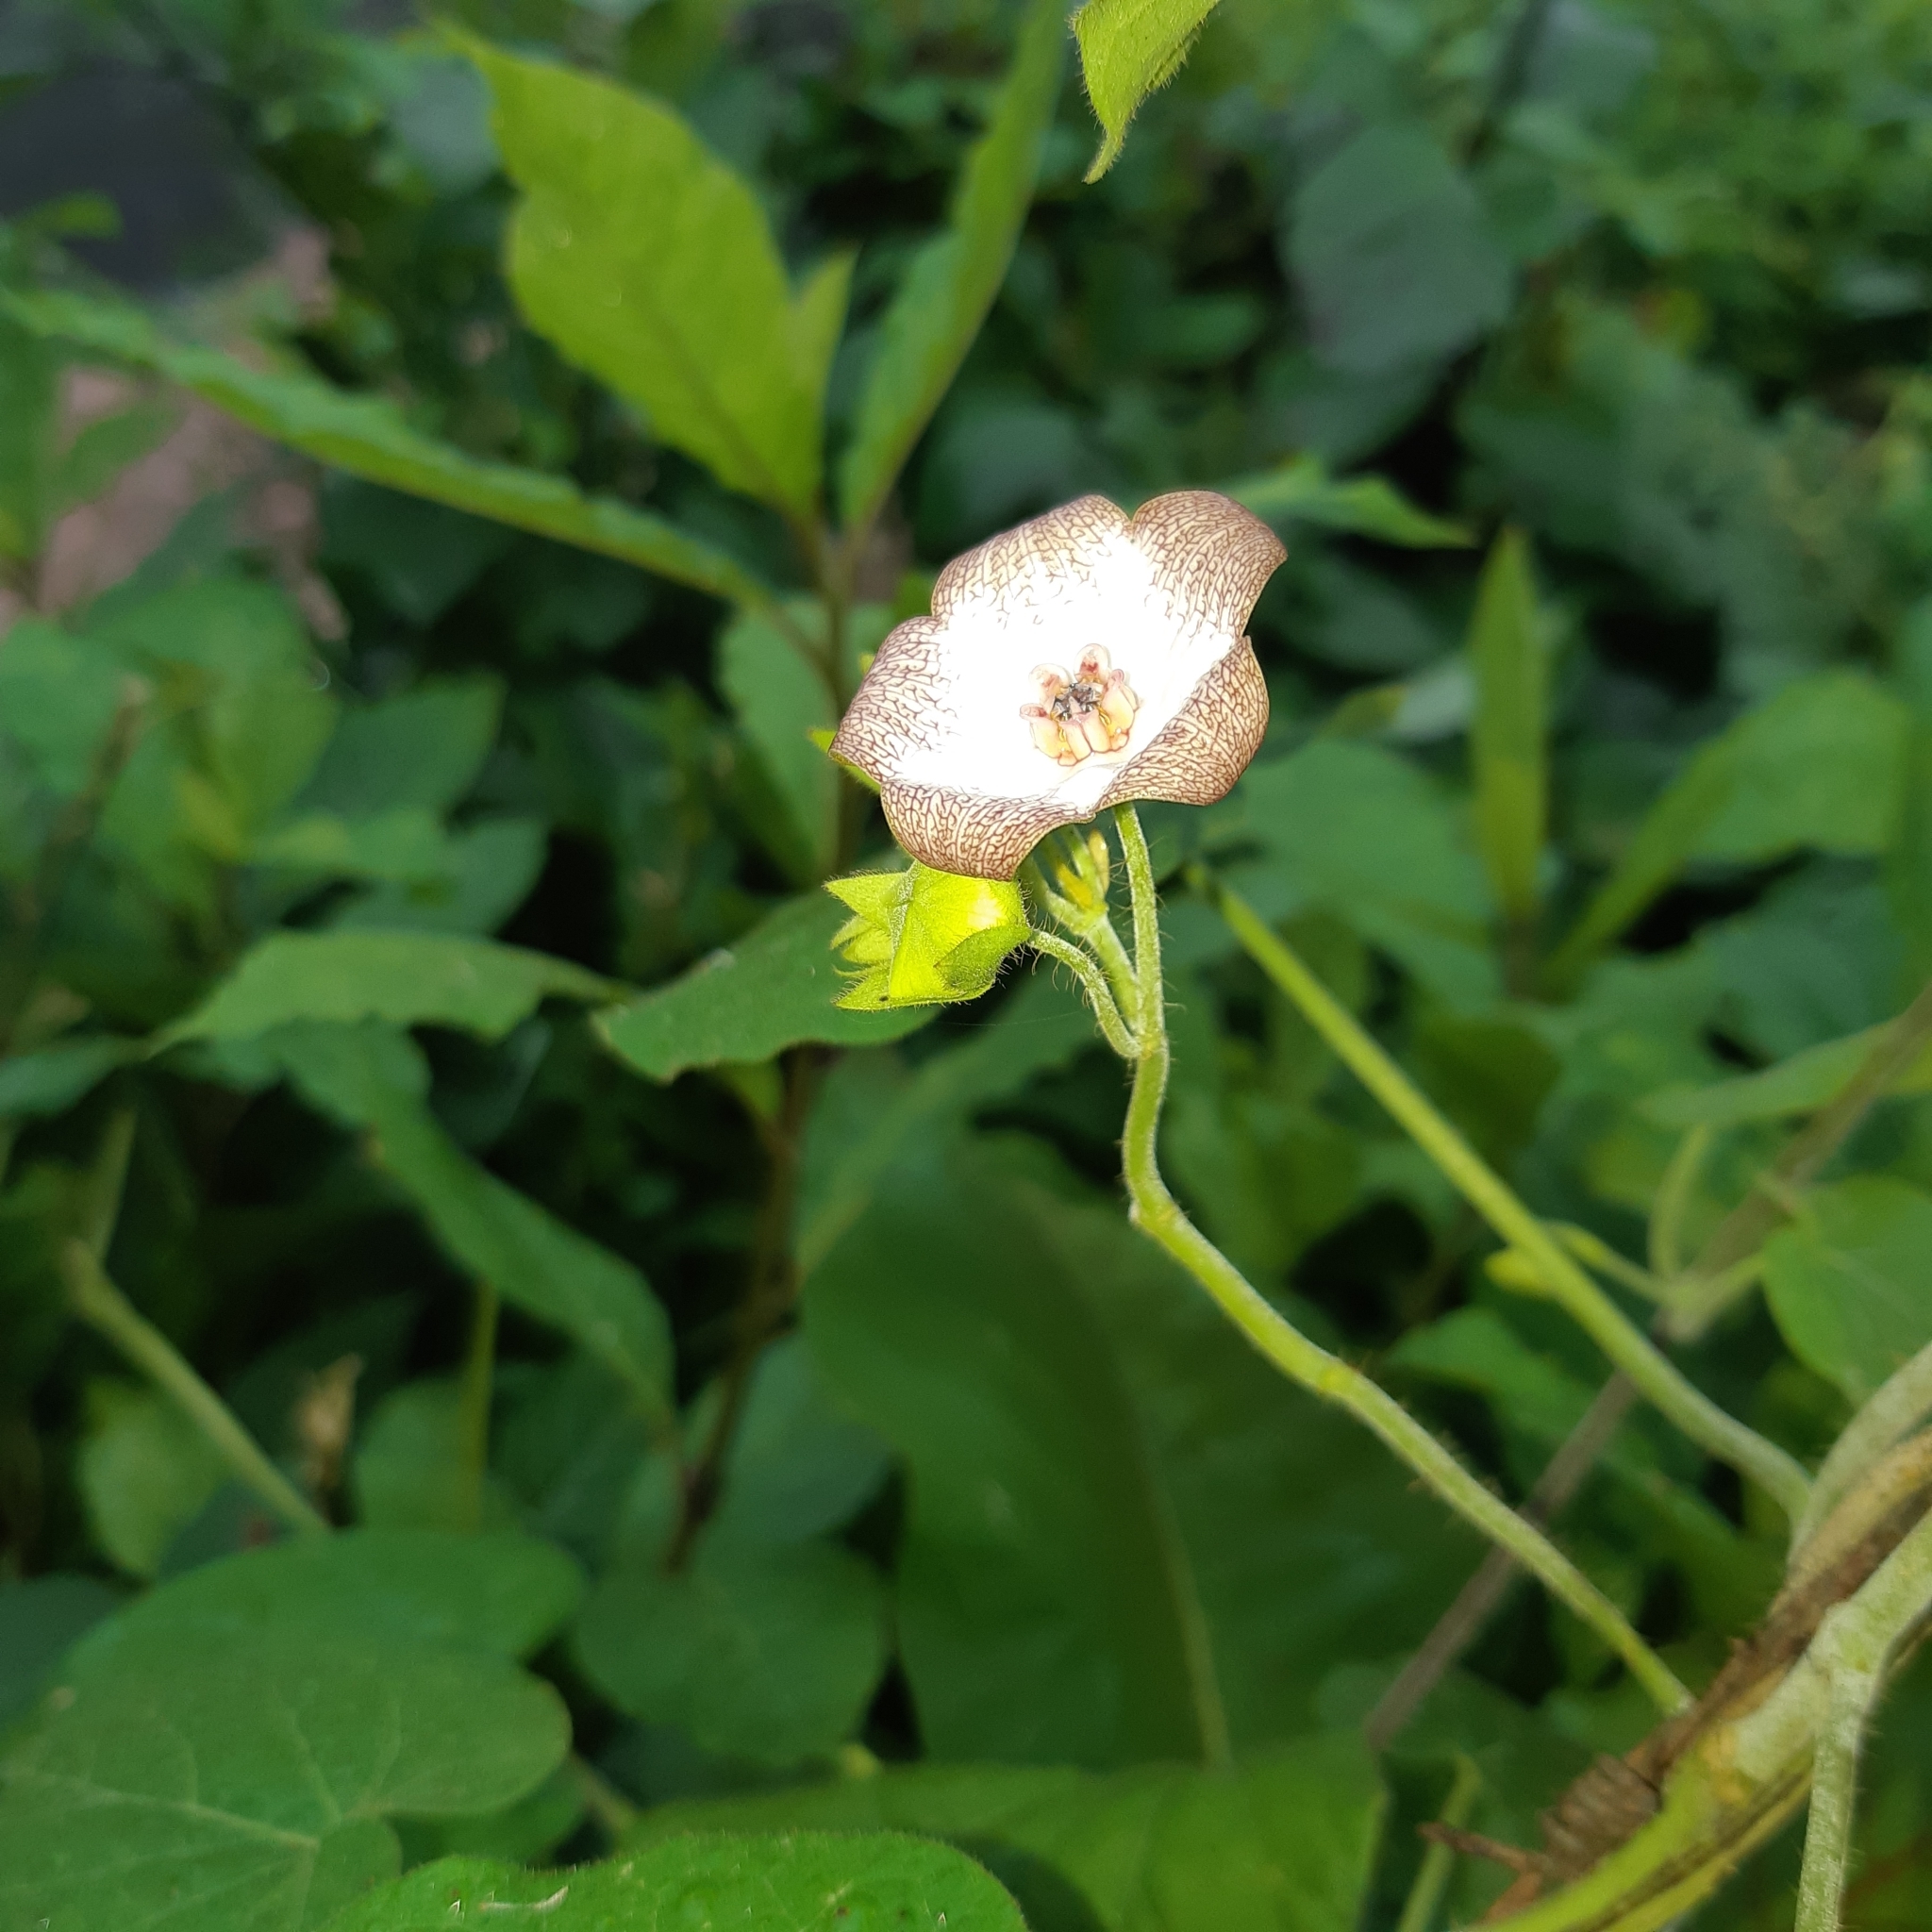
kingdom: Plantae
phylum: Tracheophyta
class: Magnoliopsida
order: Gentianales
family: Apocynaceae
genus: Polystemma
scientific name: Polystemma guatemalense
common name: Arborescente rattan
